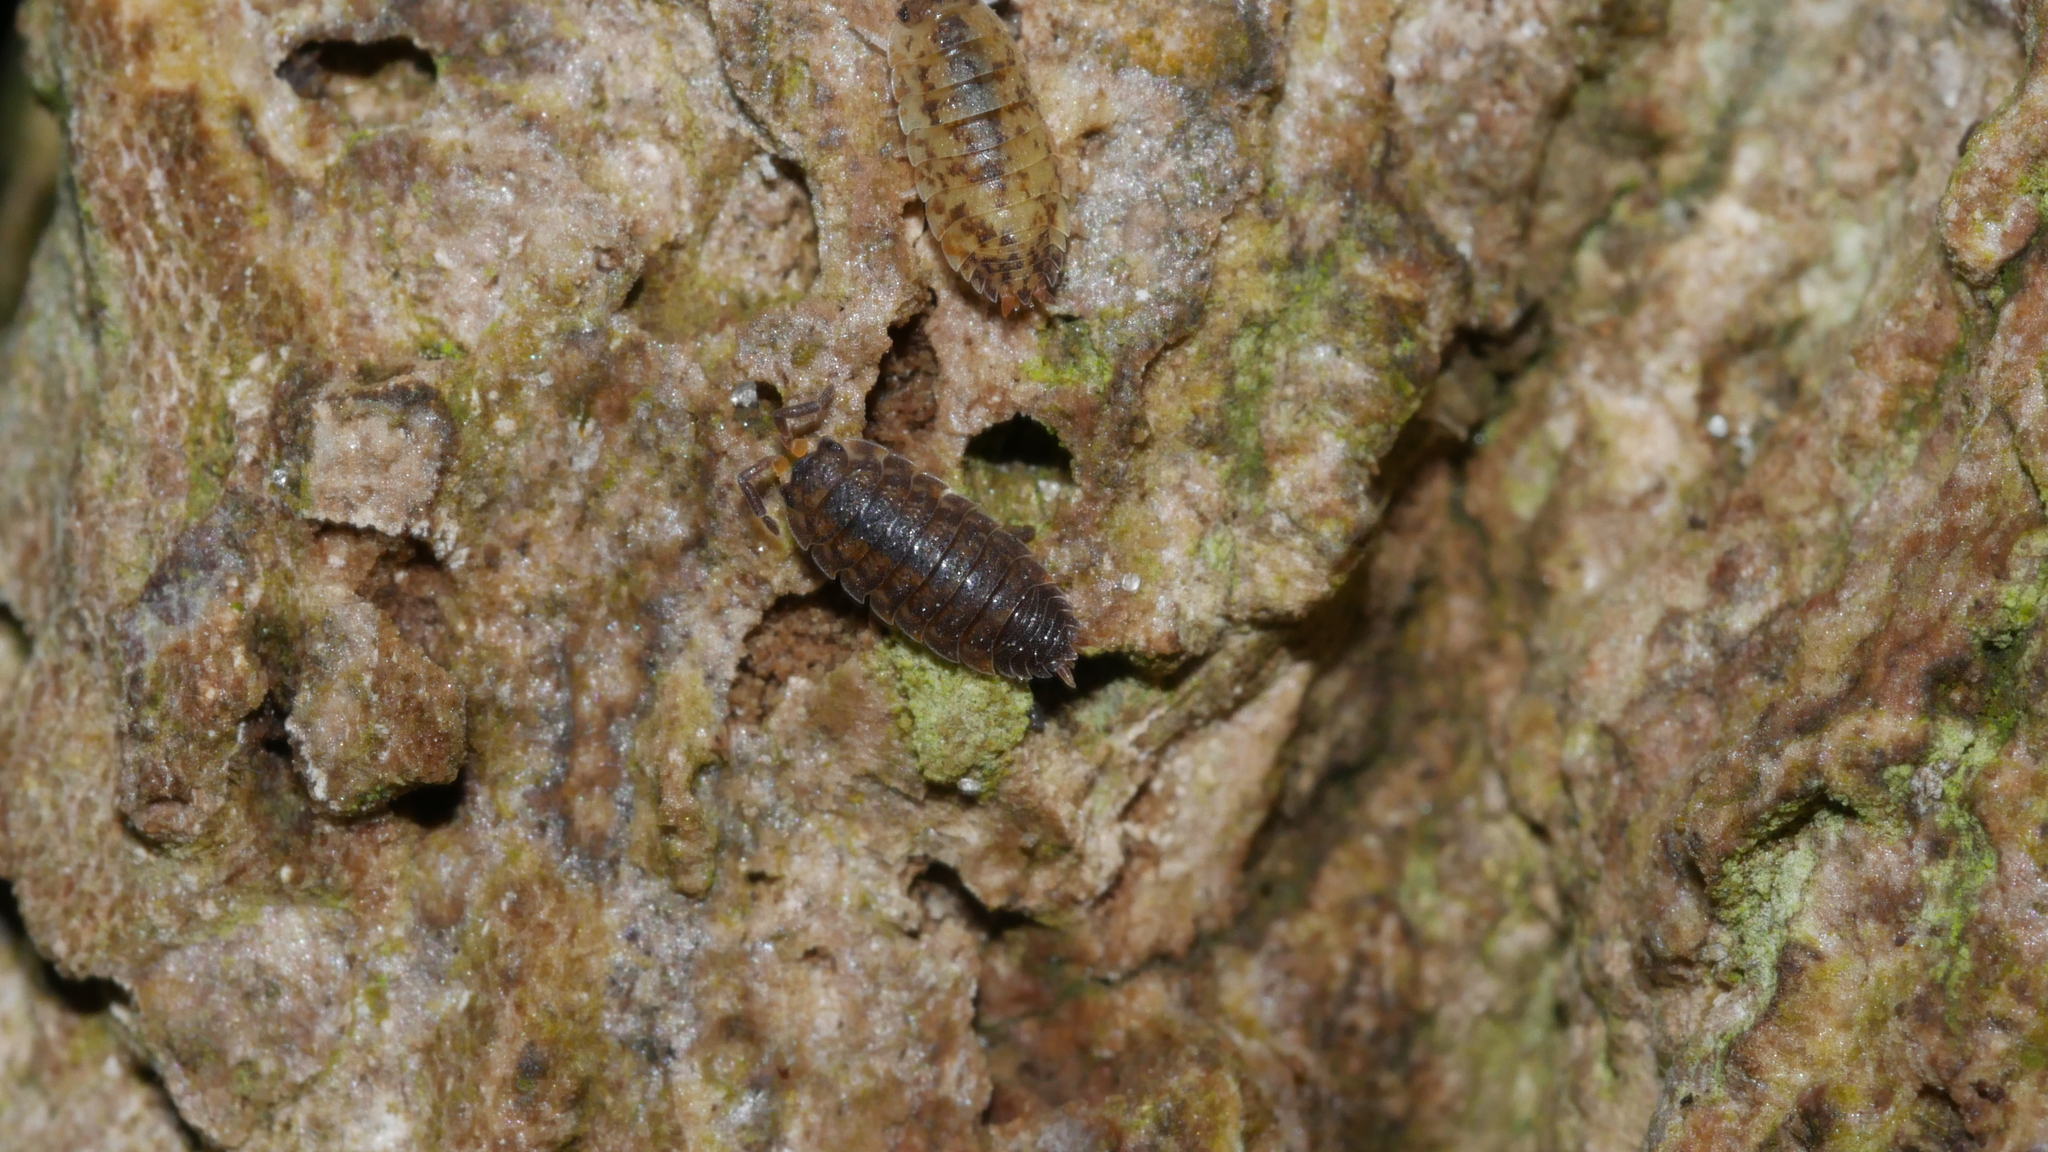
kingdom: Animalia
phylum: Arthropoda
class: Malacostraca
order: Isopoda
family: Philosciidae
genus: Philoscia
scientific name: Philoscia muscorum
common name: Common striped woodlouse
